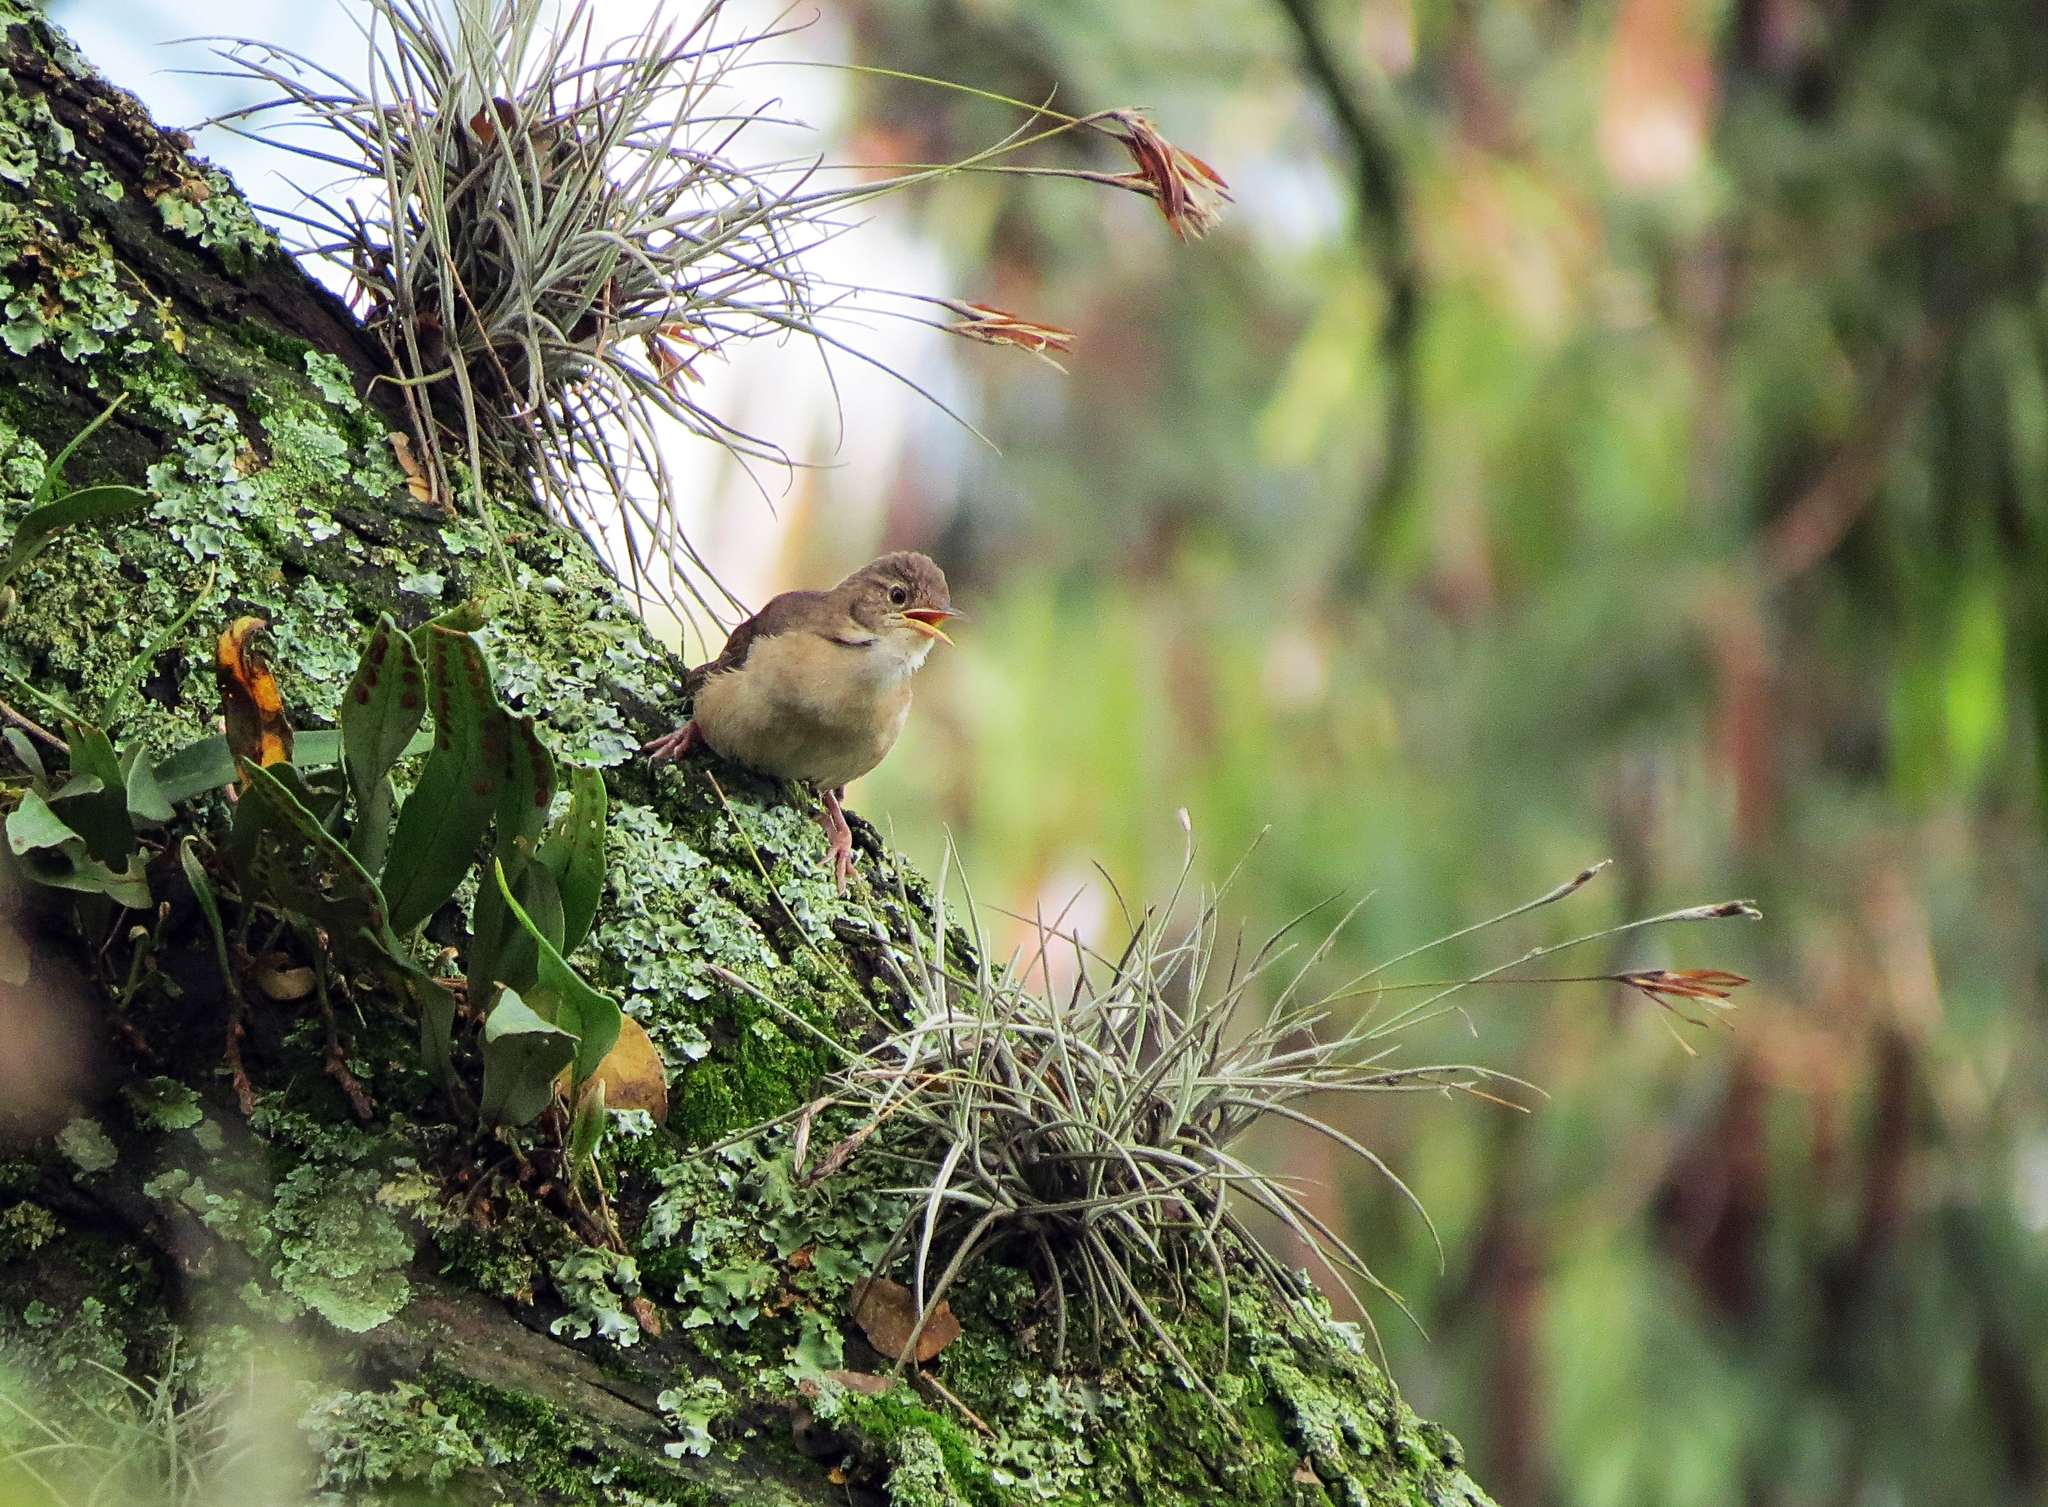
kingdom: Animalia
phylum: Chordata
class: Aves
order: Passeriformes
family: Troglodytidae
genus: Troglodytes
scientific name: Troglodytes aedon
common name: House wren
